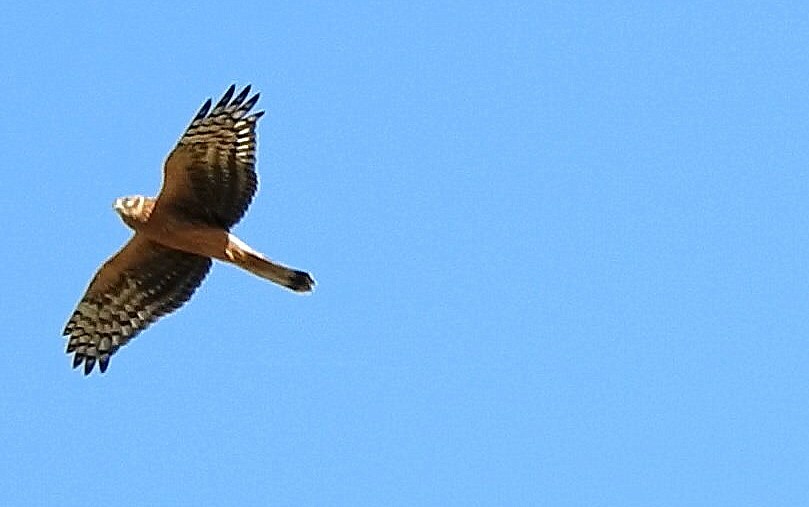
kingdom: Animalia
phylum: Chordata
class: Aves
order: Accipitriformes
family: Accipitridae
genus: Circus
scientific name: Circus cyaneus
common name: Hen harrier
